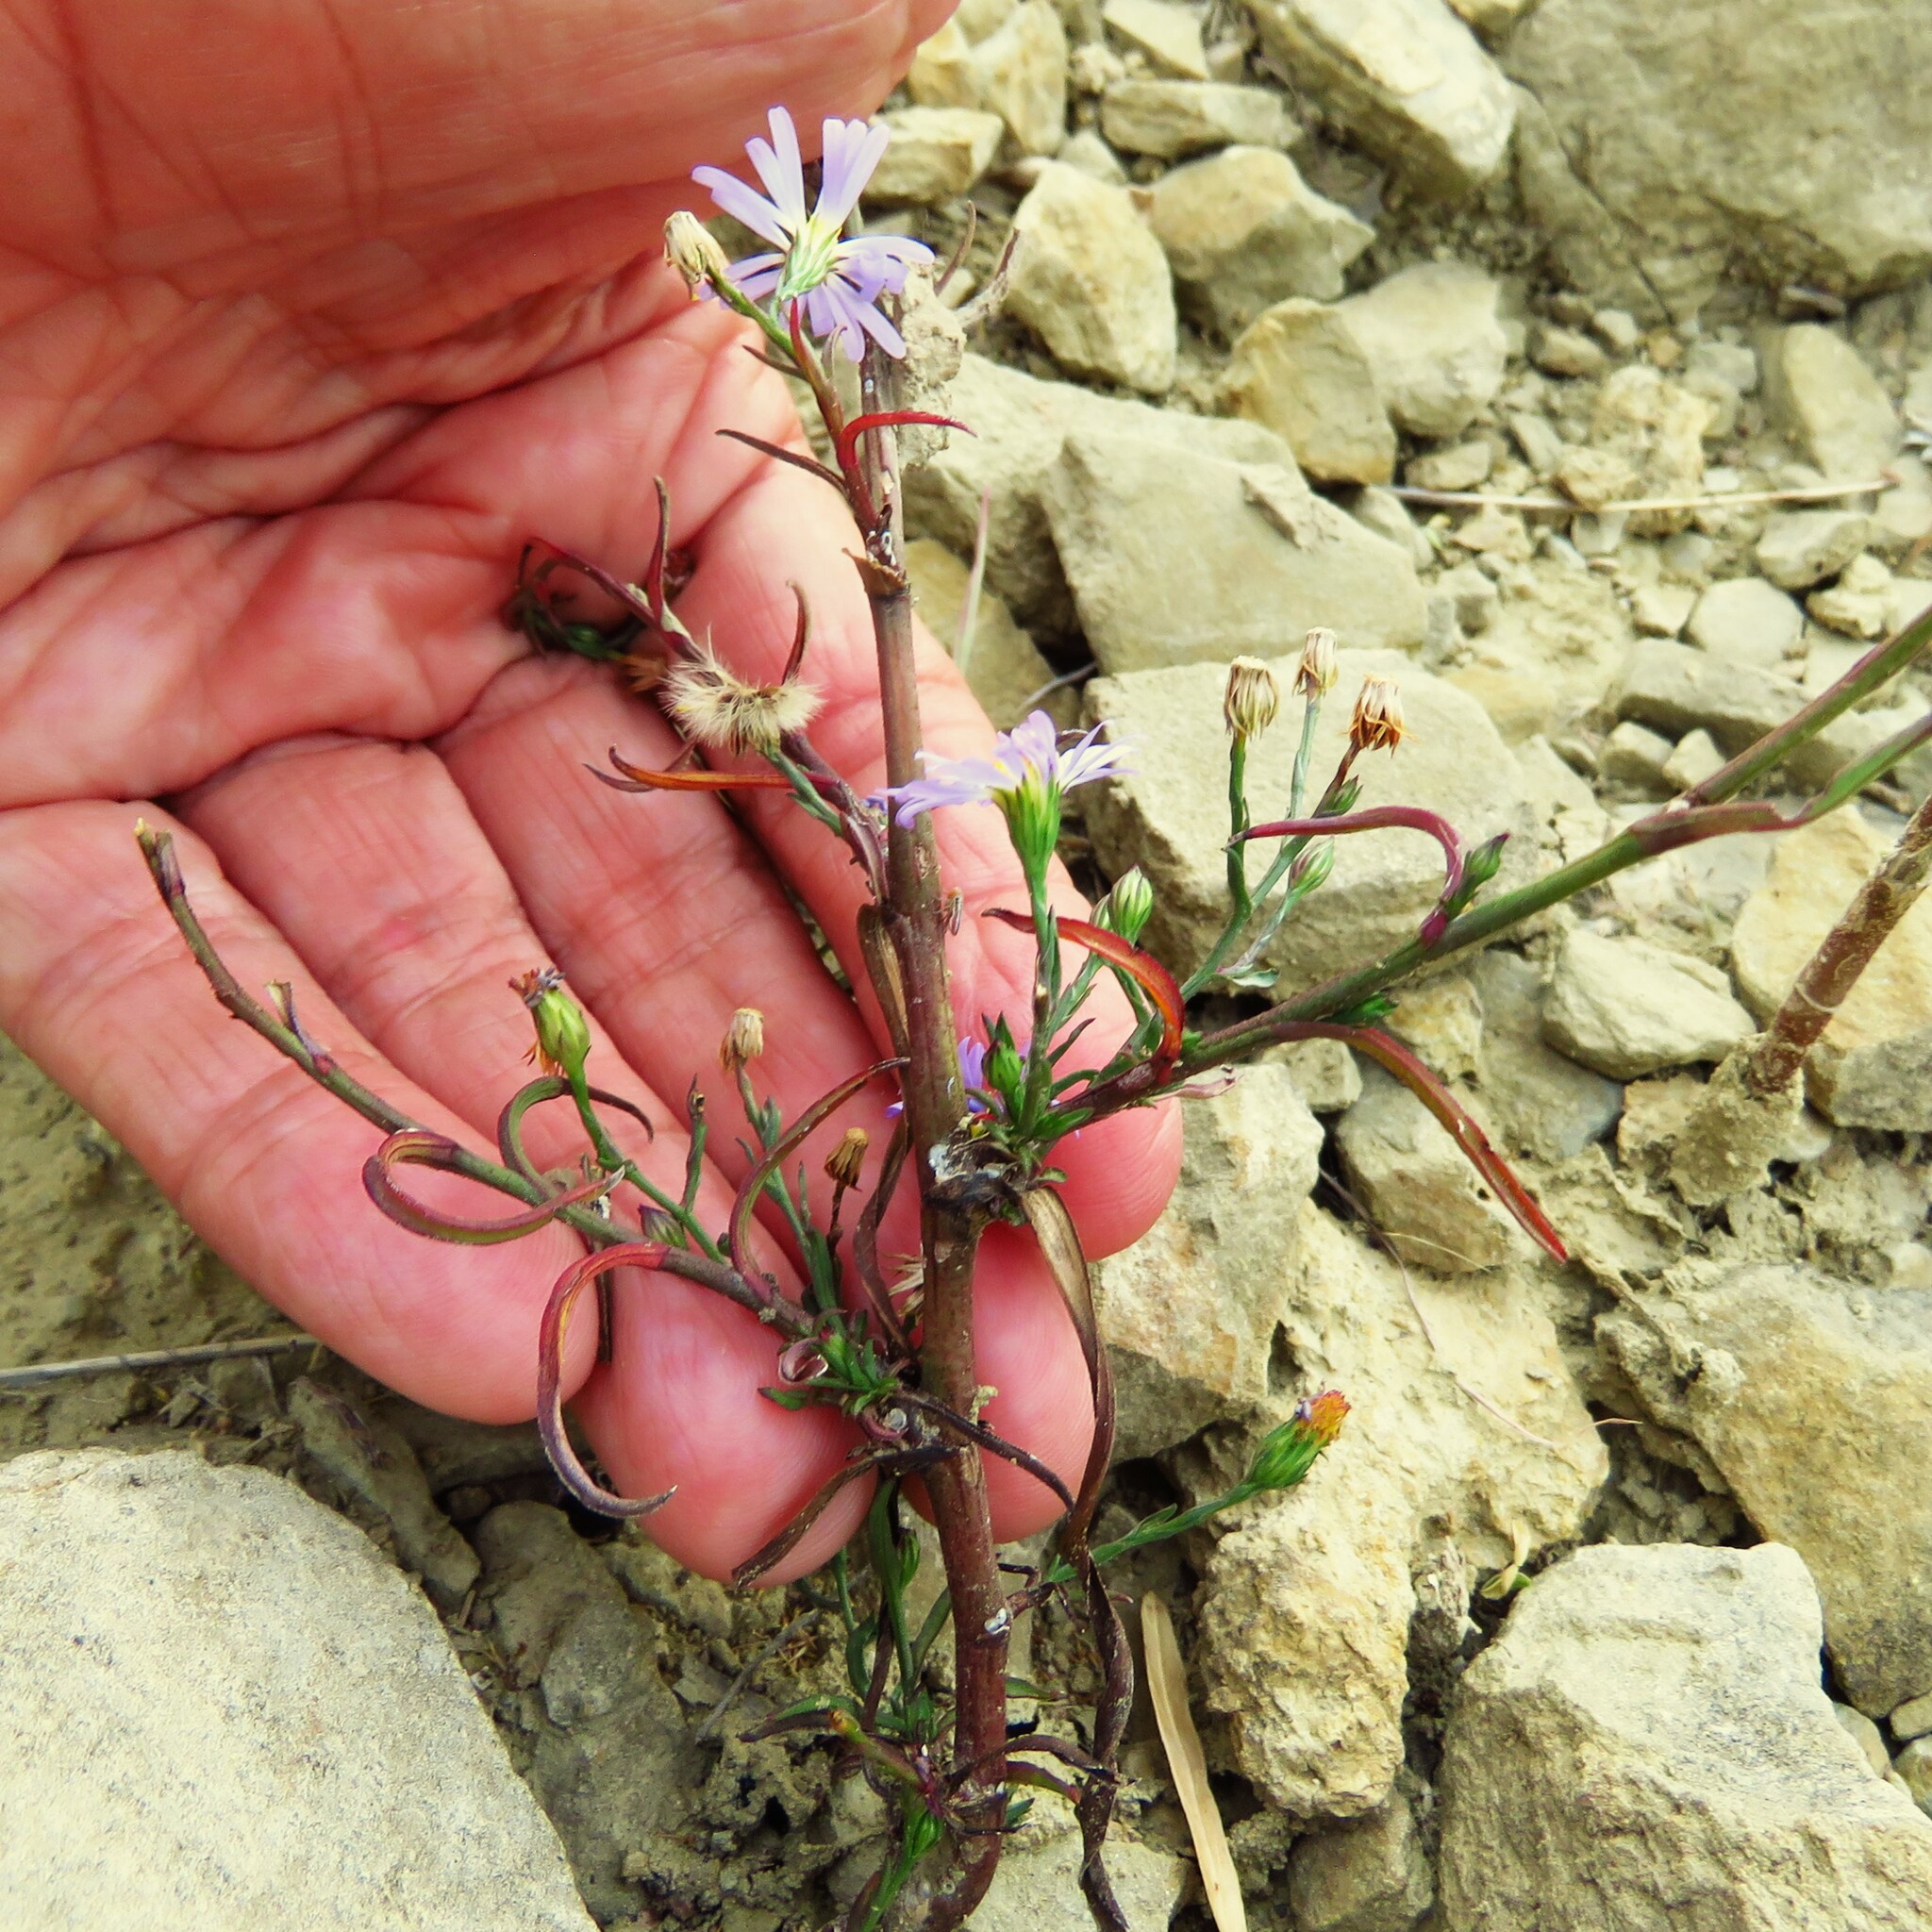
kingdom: Plantae
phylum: Tracheophyta
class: Magnoliopsida
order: Asterales
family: Asteraceae
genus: Symphyotrichum
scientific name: Symphyotrichum divaricatum
